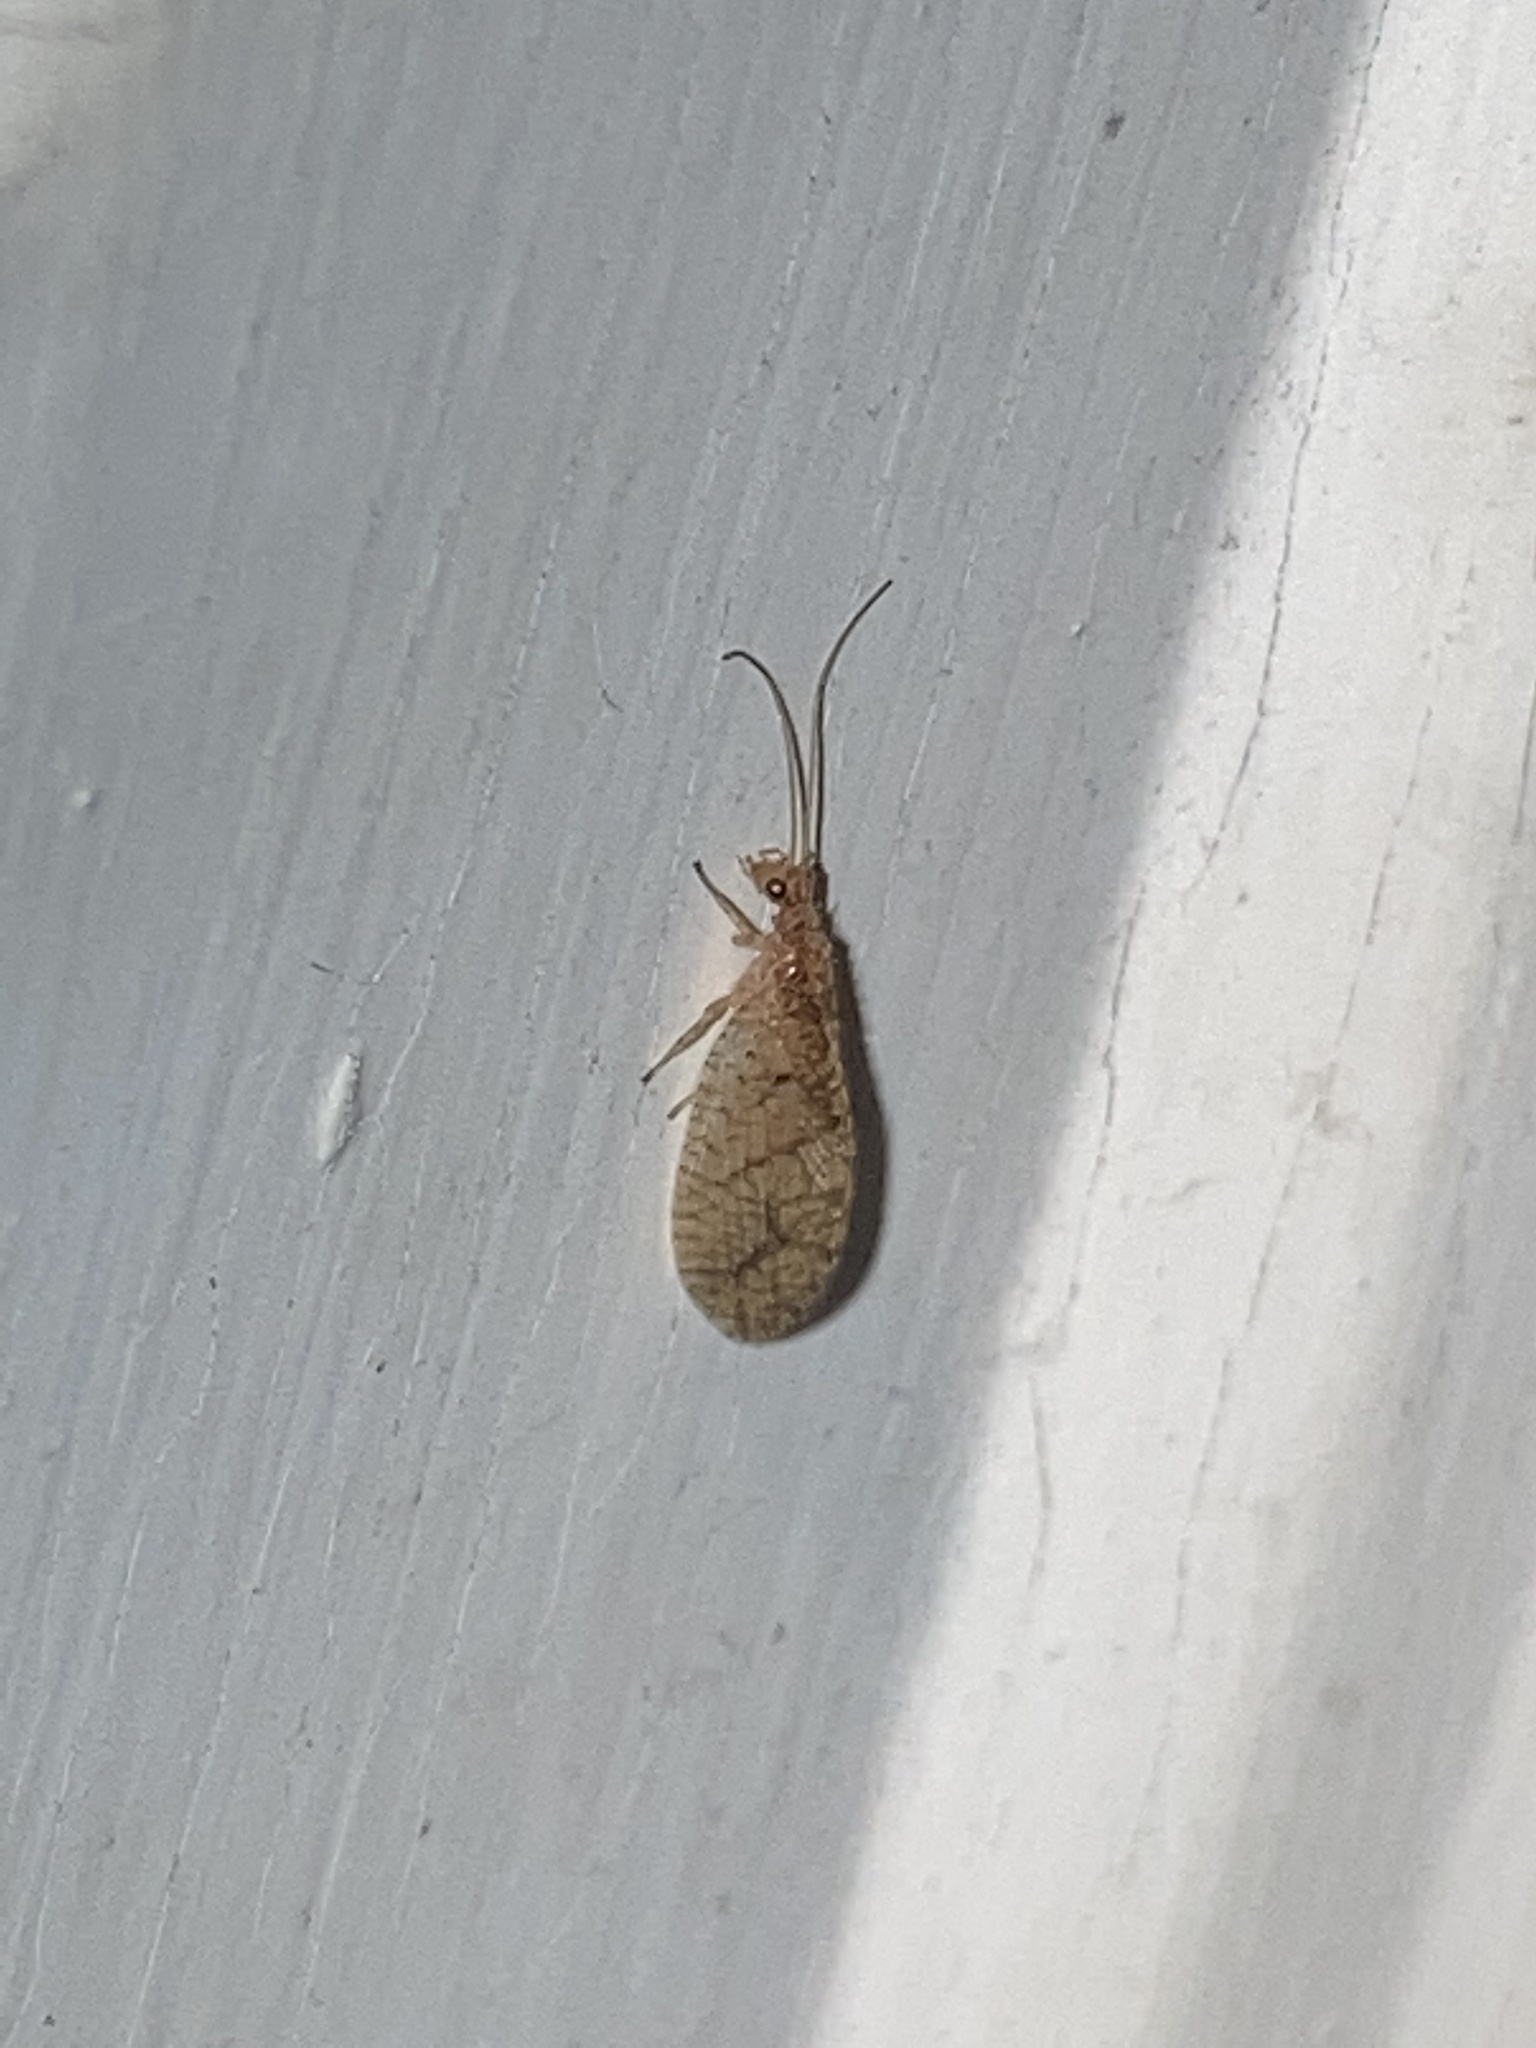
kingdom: Animalia
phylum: Arthropoda
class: Insecta
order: Neuroptera
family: Hemerobiidae
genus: Micromus
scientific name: Micromus posticus
